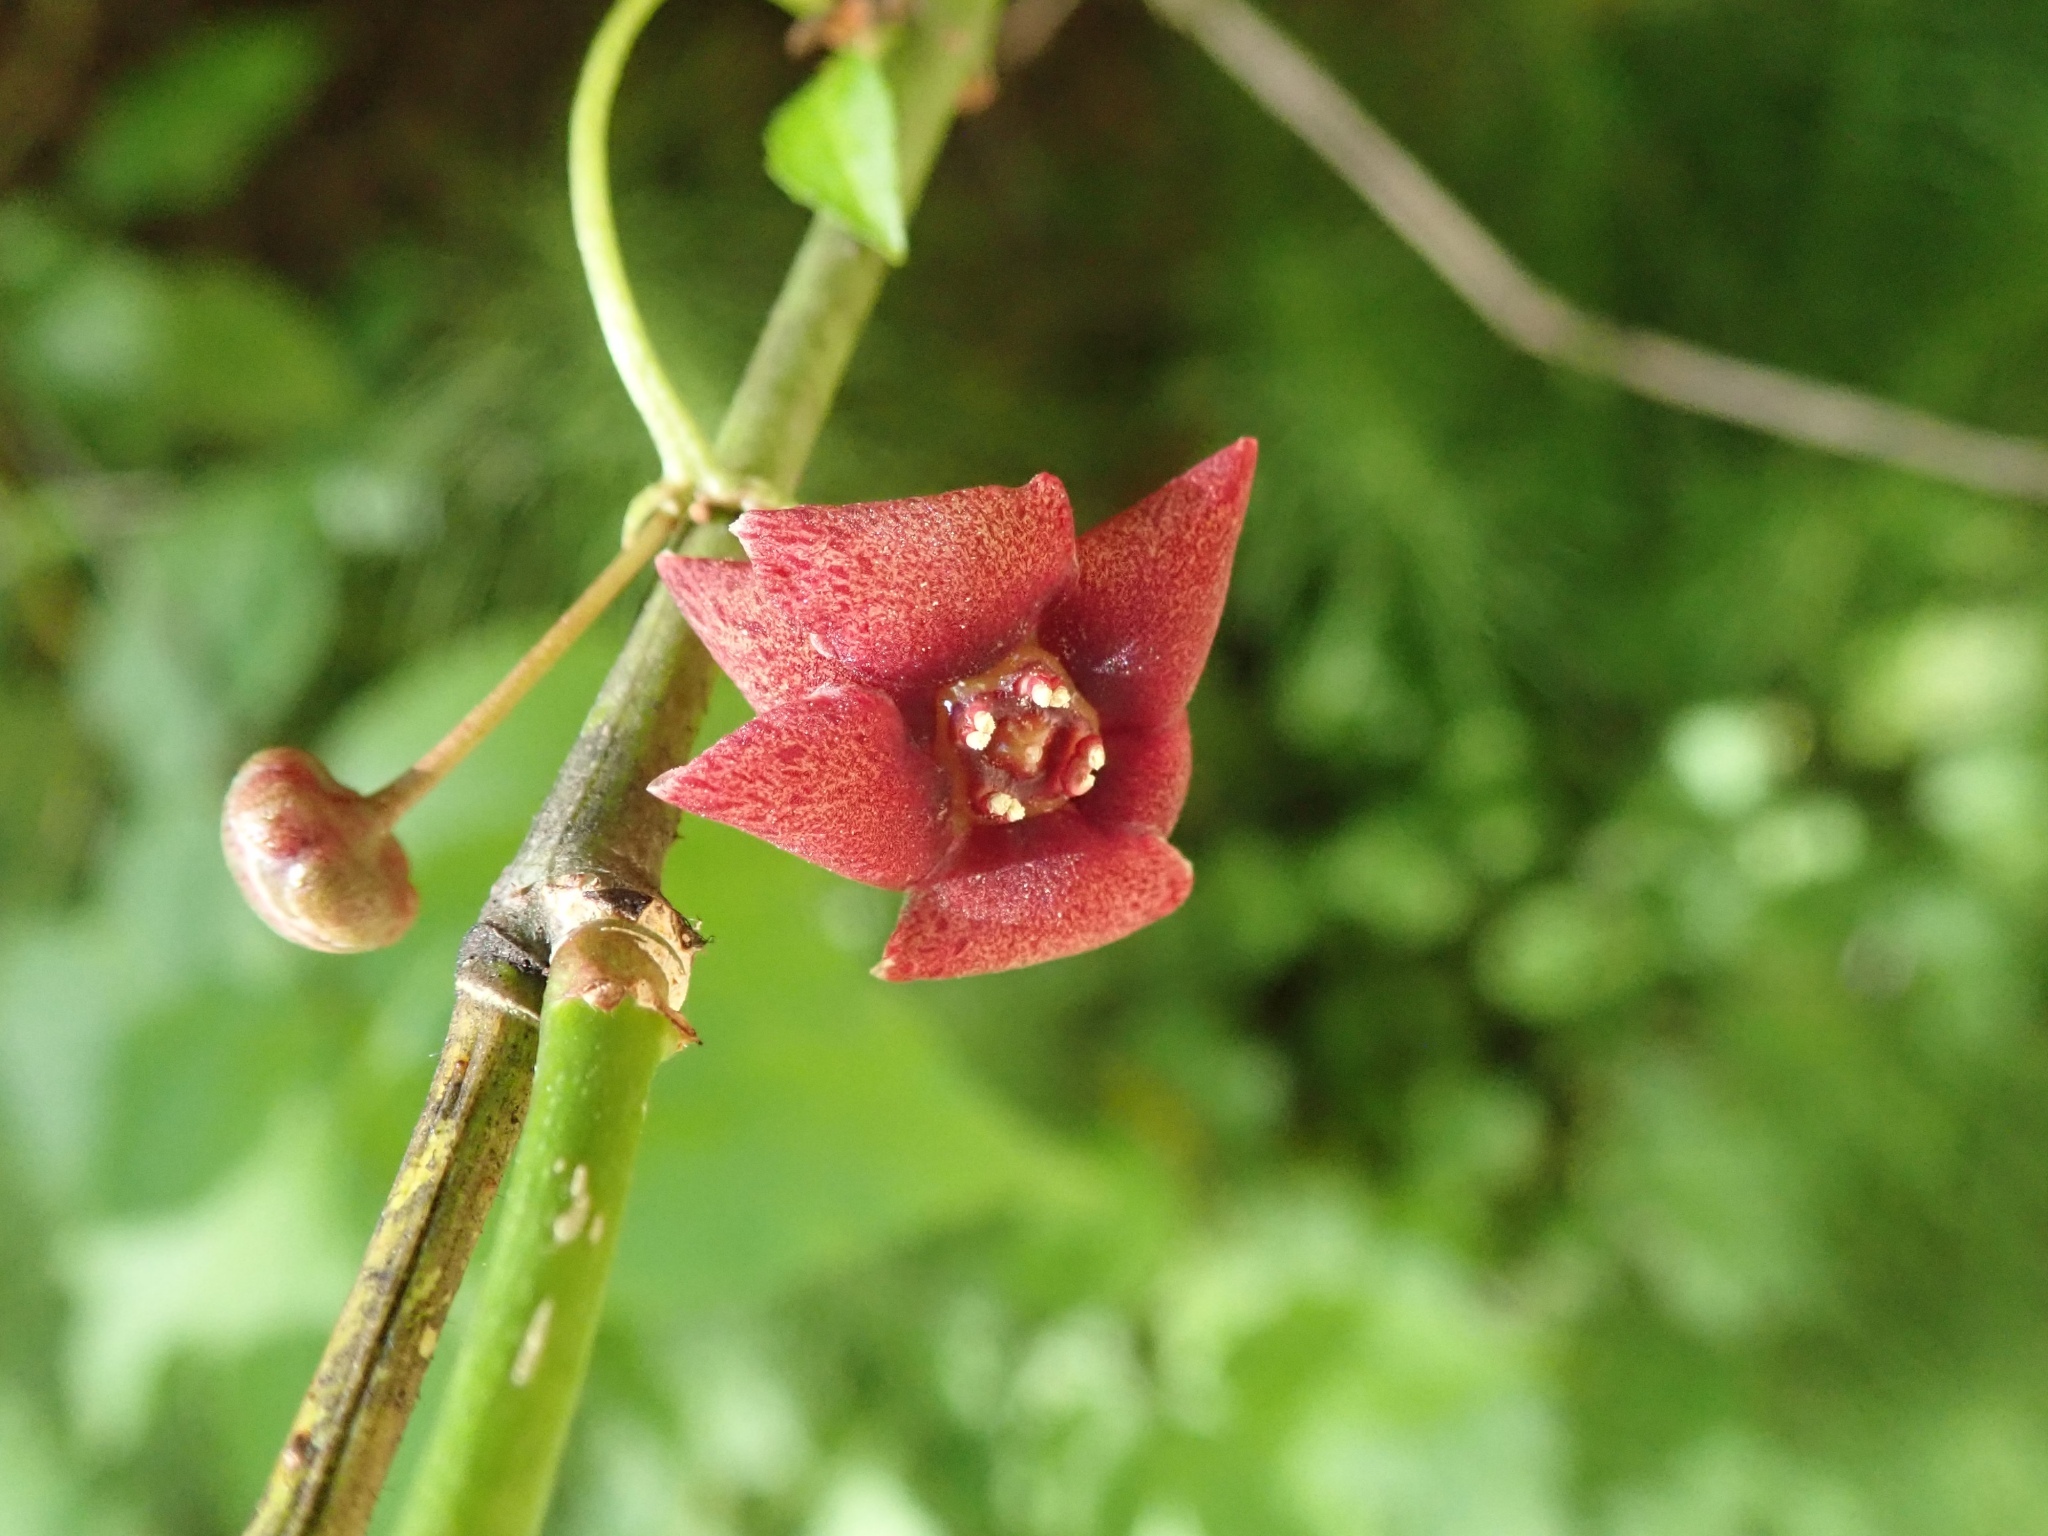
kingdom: Plantae
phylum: Tracheophyta
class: Magnoliopsida
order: Celastrales
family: Celastraceae
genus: Euonymus
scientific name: Euonymus occidentalis
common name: Western burningbush
